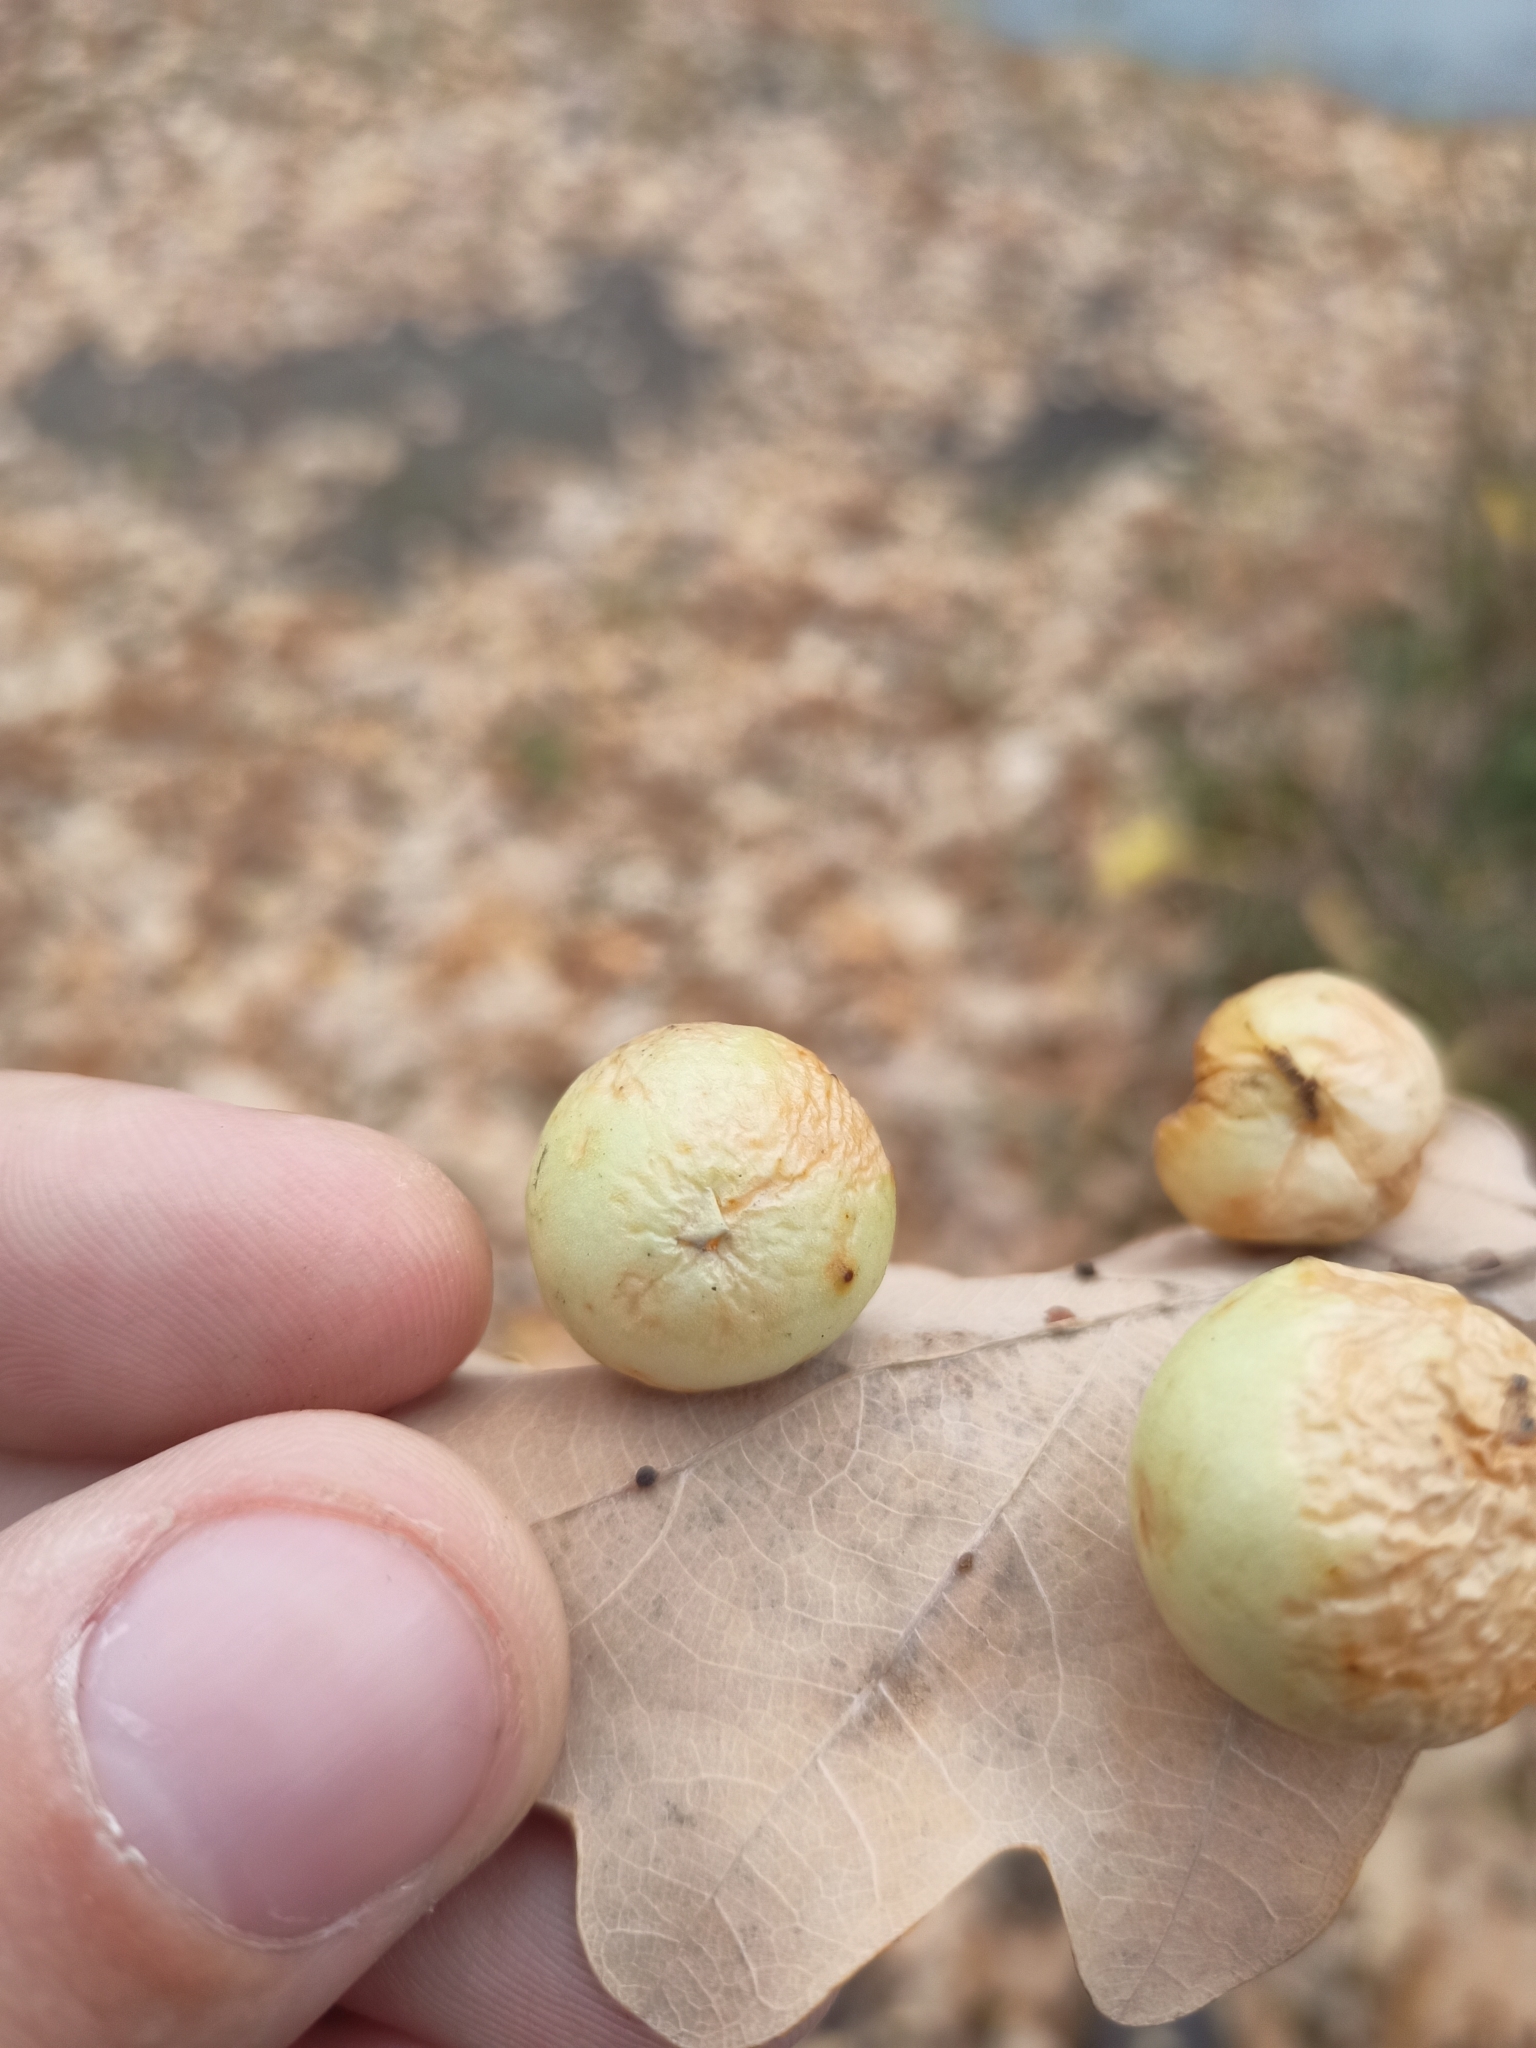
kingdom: Animalia
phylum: Arthropoda
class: Insecta
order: Hymenoptera
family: Cynipidae
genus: Cynips
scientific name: Cynips quercusfolii
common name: Cherry gall
